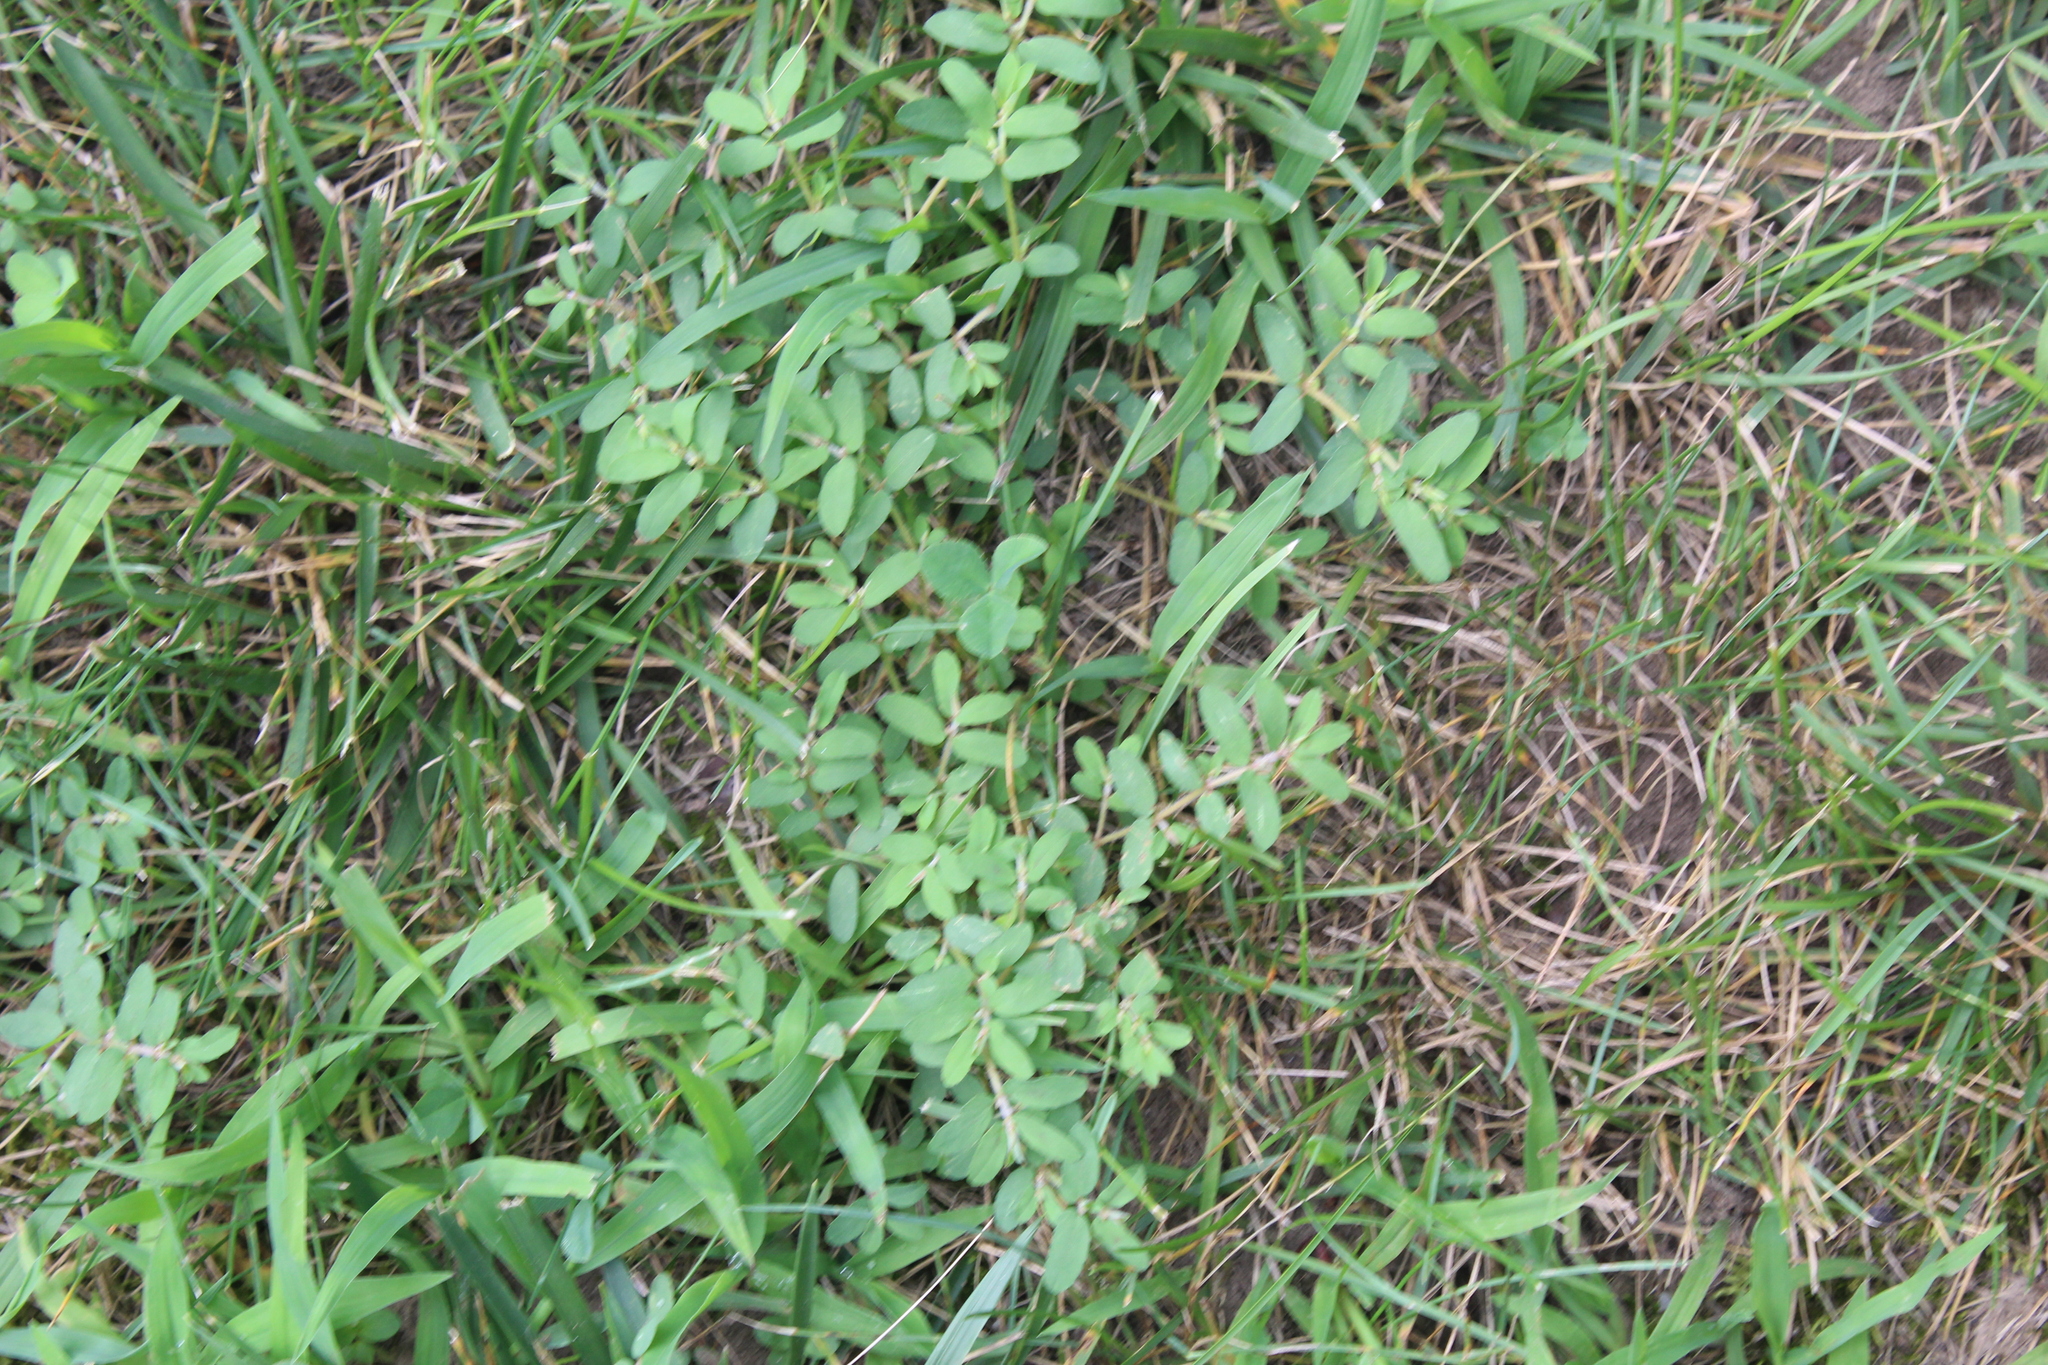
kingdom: Plantae
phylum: Tracheophyta
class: Magnoliopsida
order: Malpighiales
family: Euphorbiaceae
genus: Euphorbia
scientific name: Euphorbia maculata
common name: Spotted spurge
